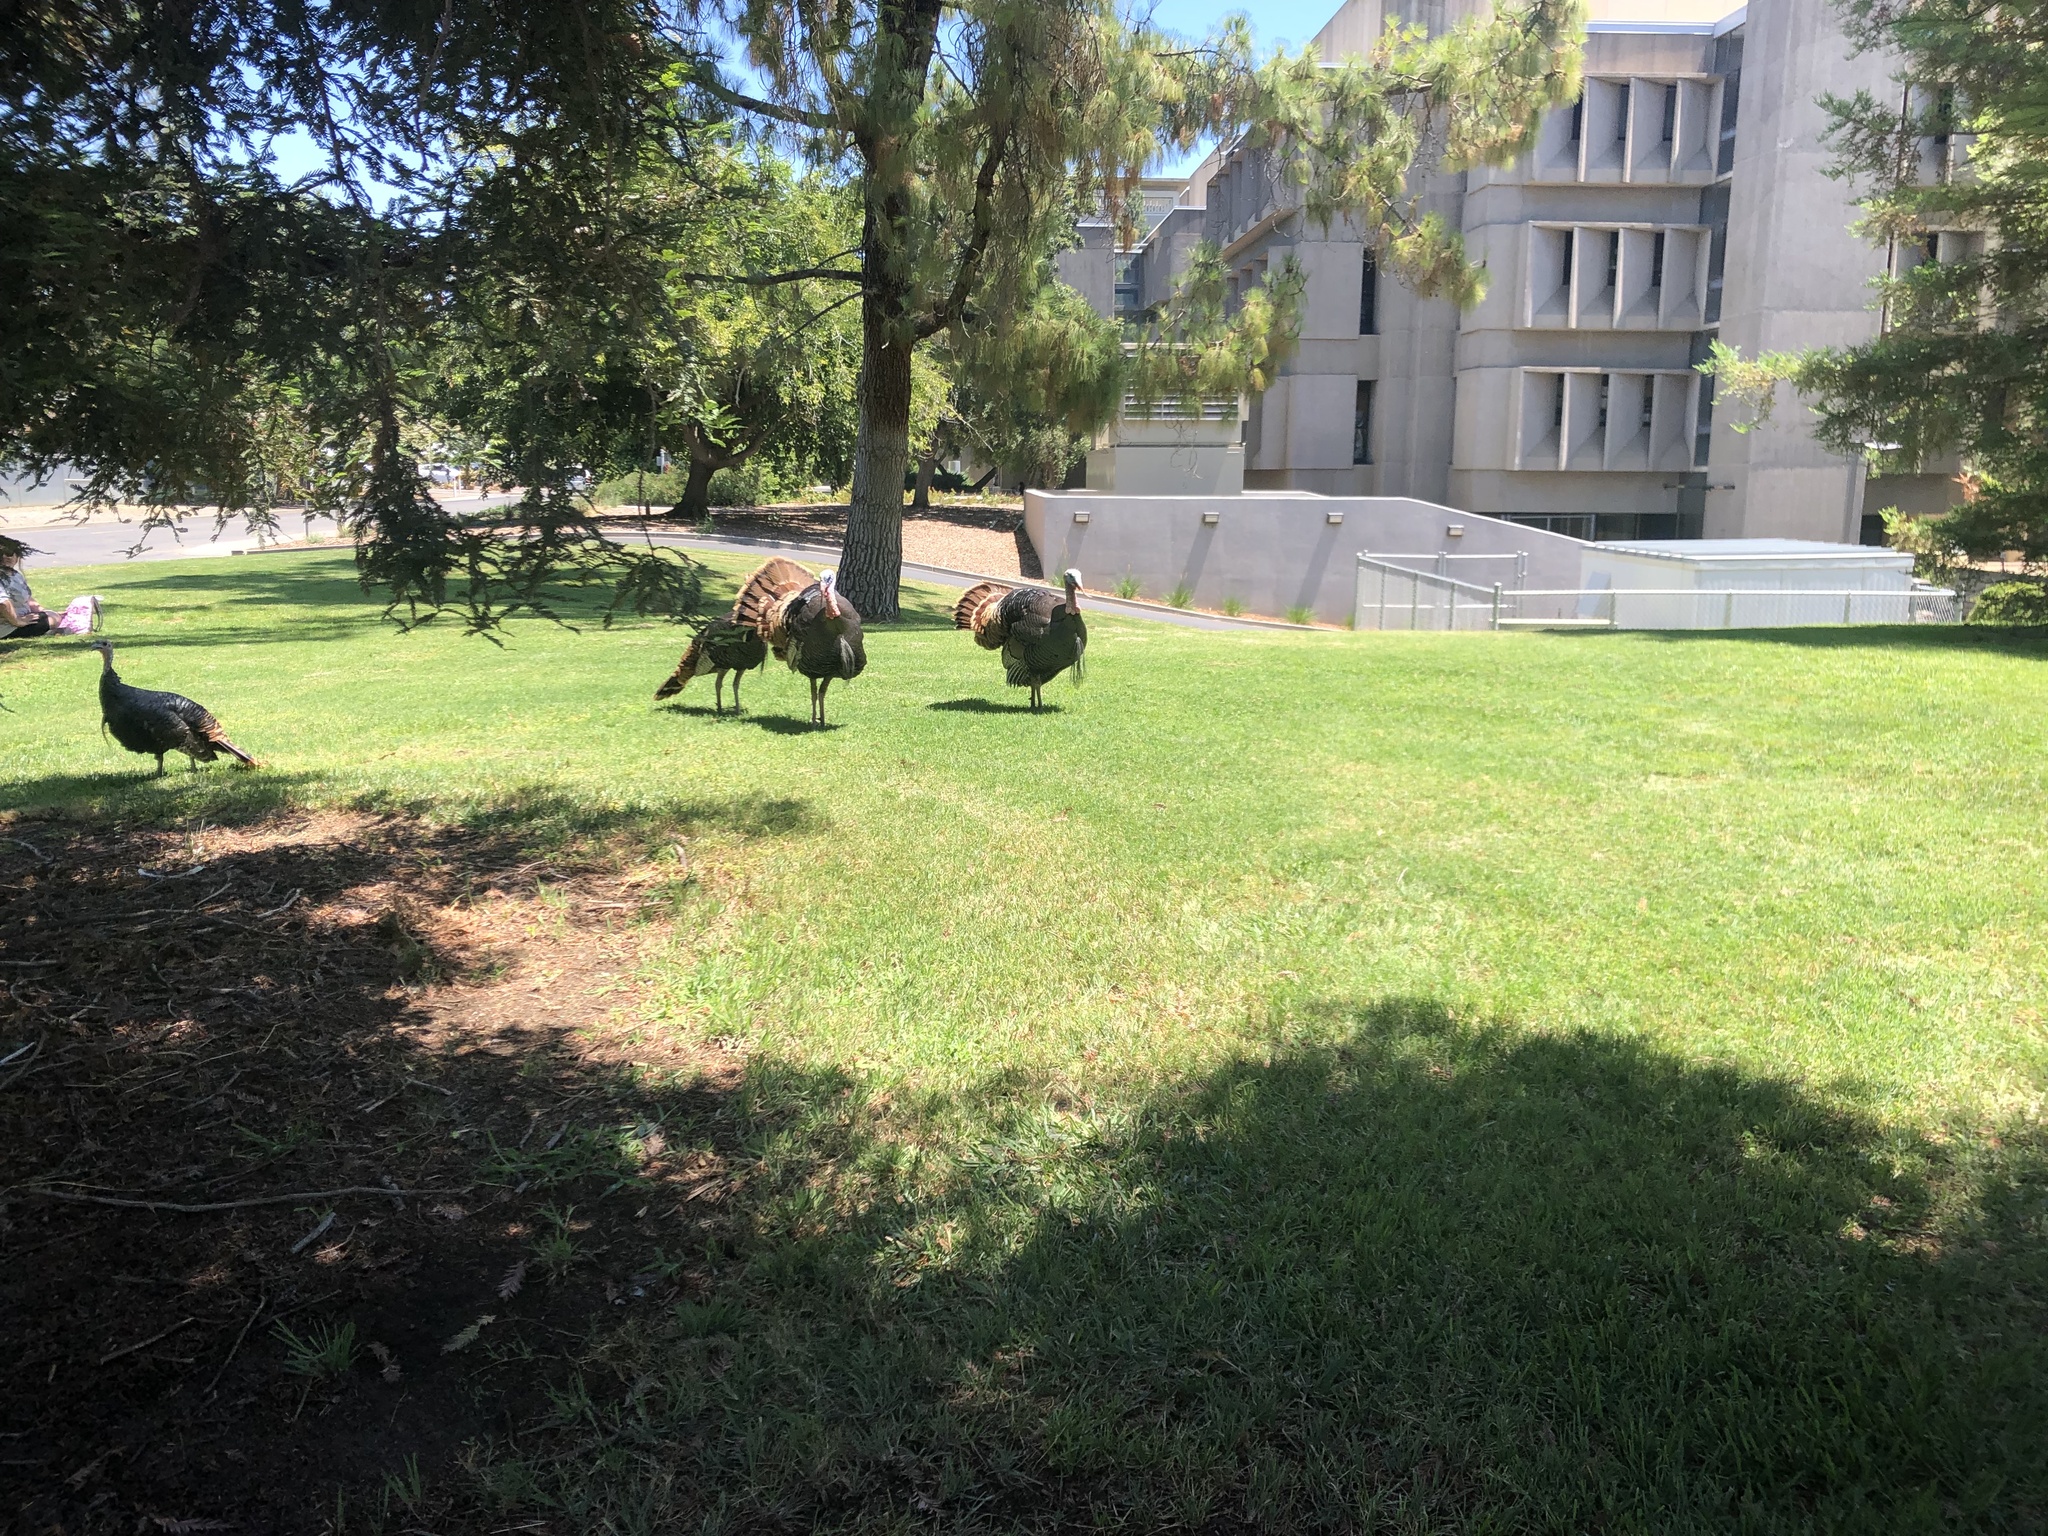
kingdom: Animalia
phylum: Chordata
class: Aves
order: Galliformes
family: Phasianidae
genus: Meleagris
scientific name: Meleagris gallopavo
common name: Wild turkey
